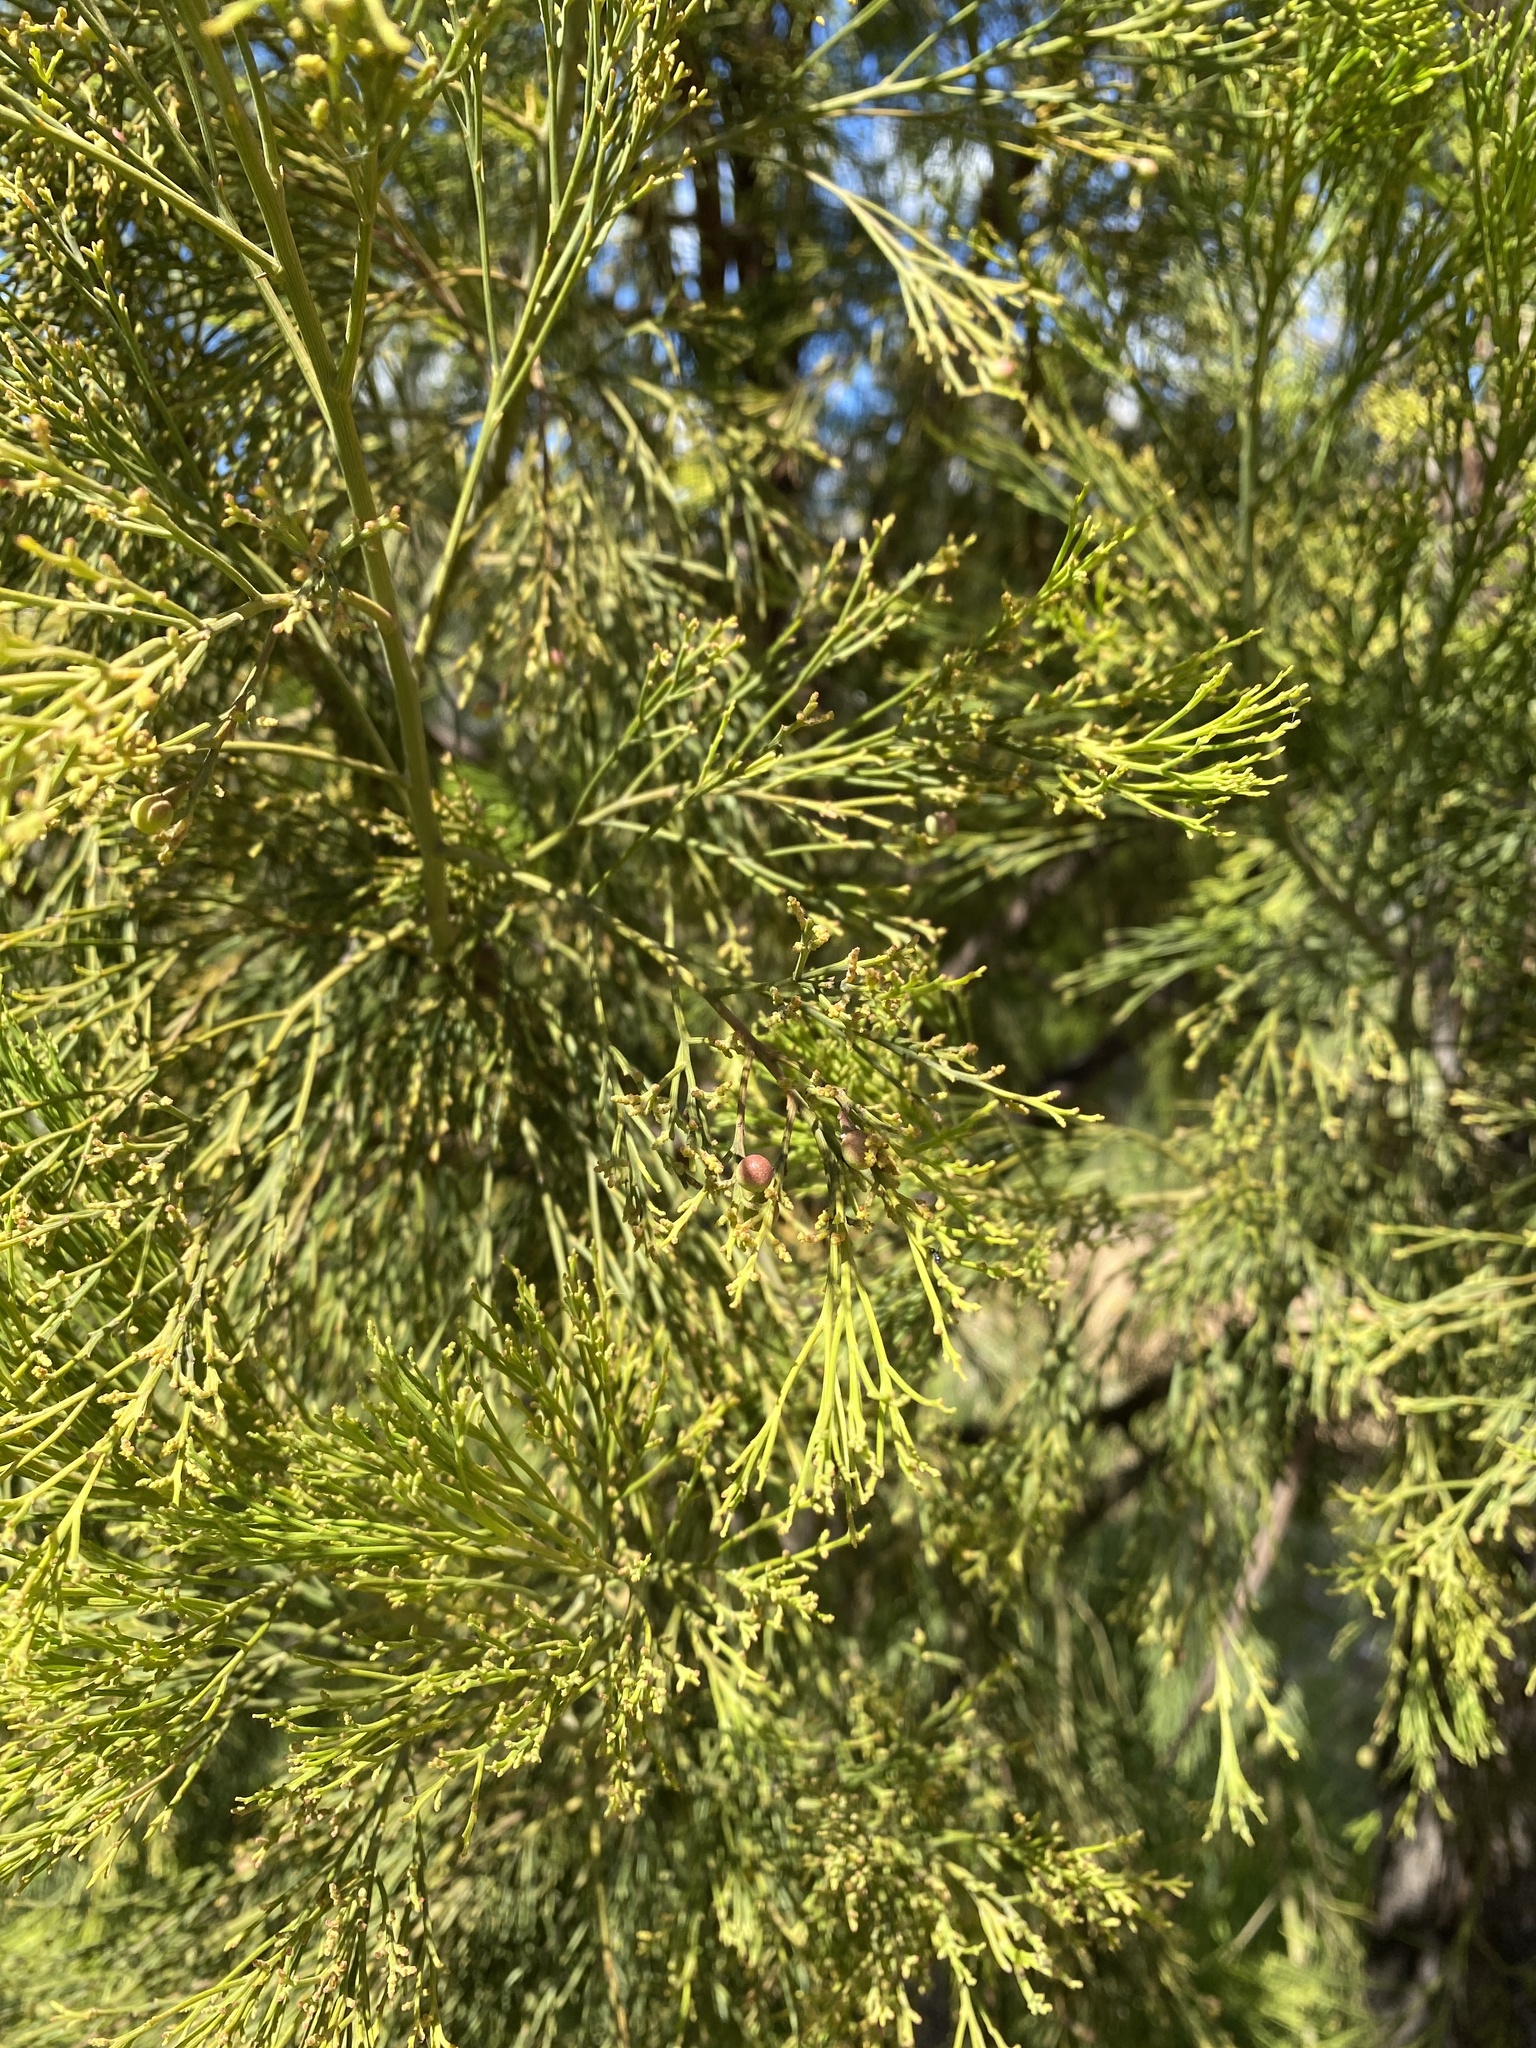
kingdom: Plantae
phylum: Tracheophyta
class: Magnoliopsida
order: Santalales
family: Santalaceae
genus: Exocarpos
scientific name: Exocarpos cupressiformis
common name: Cherry ballart
